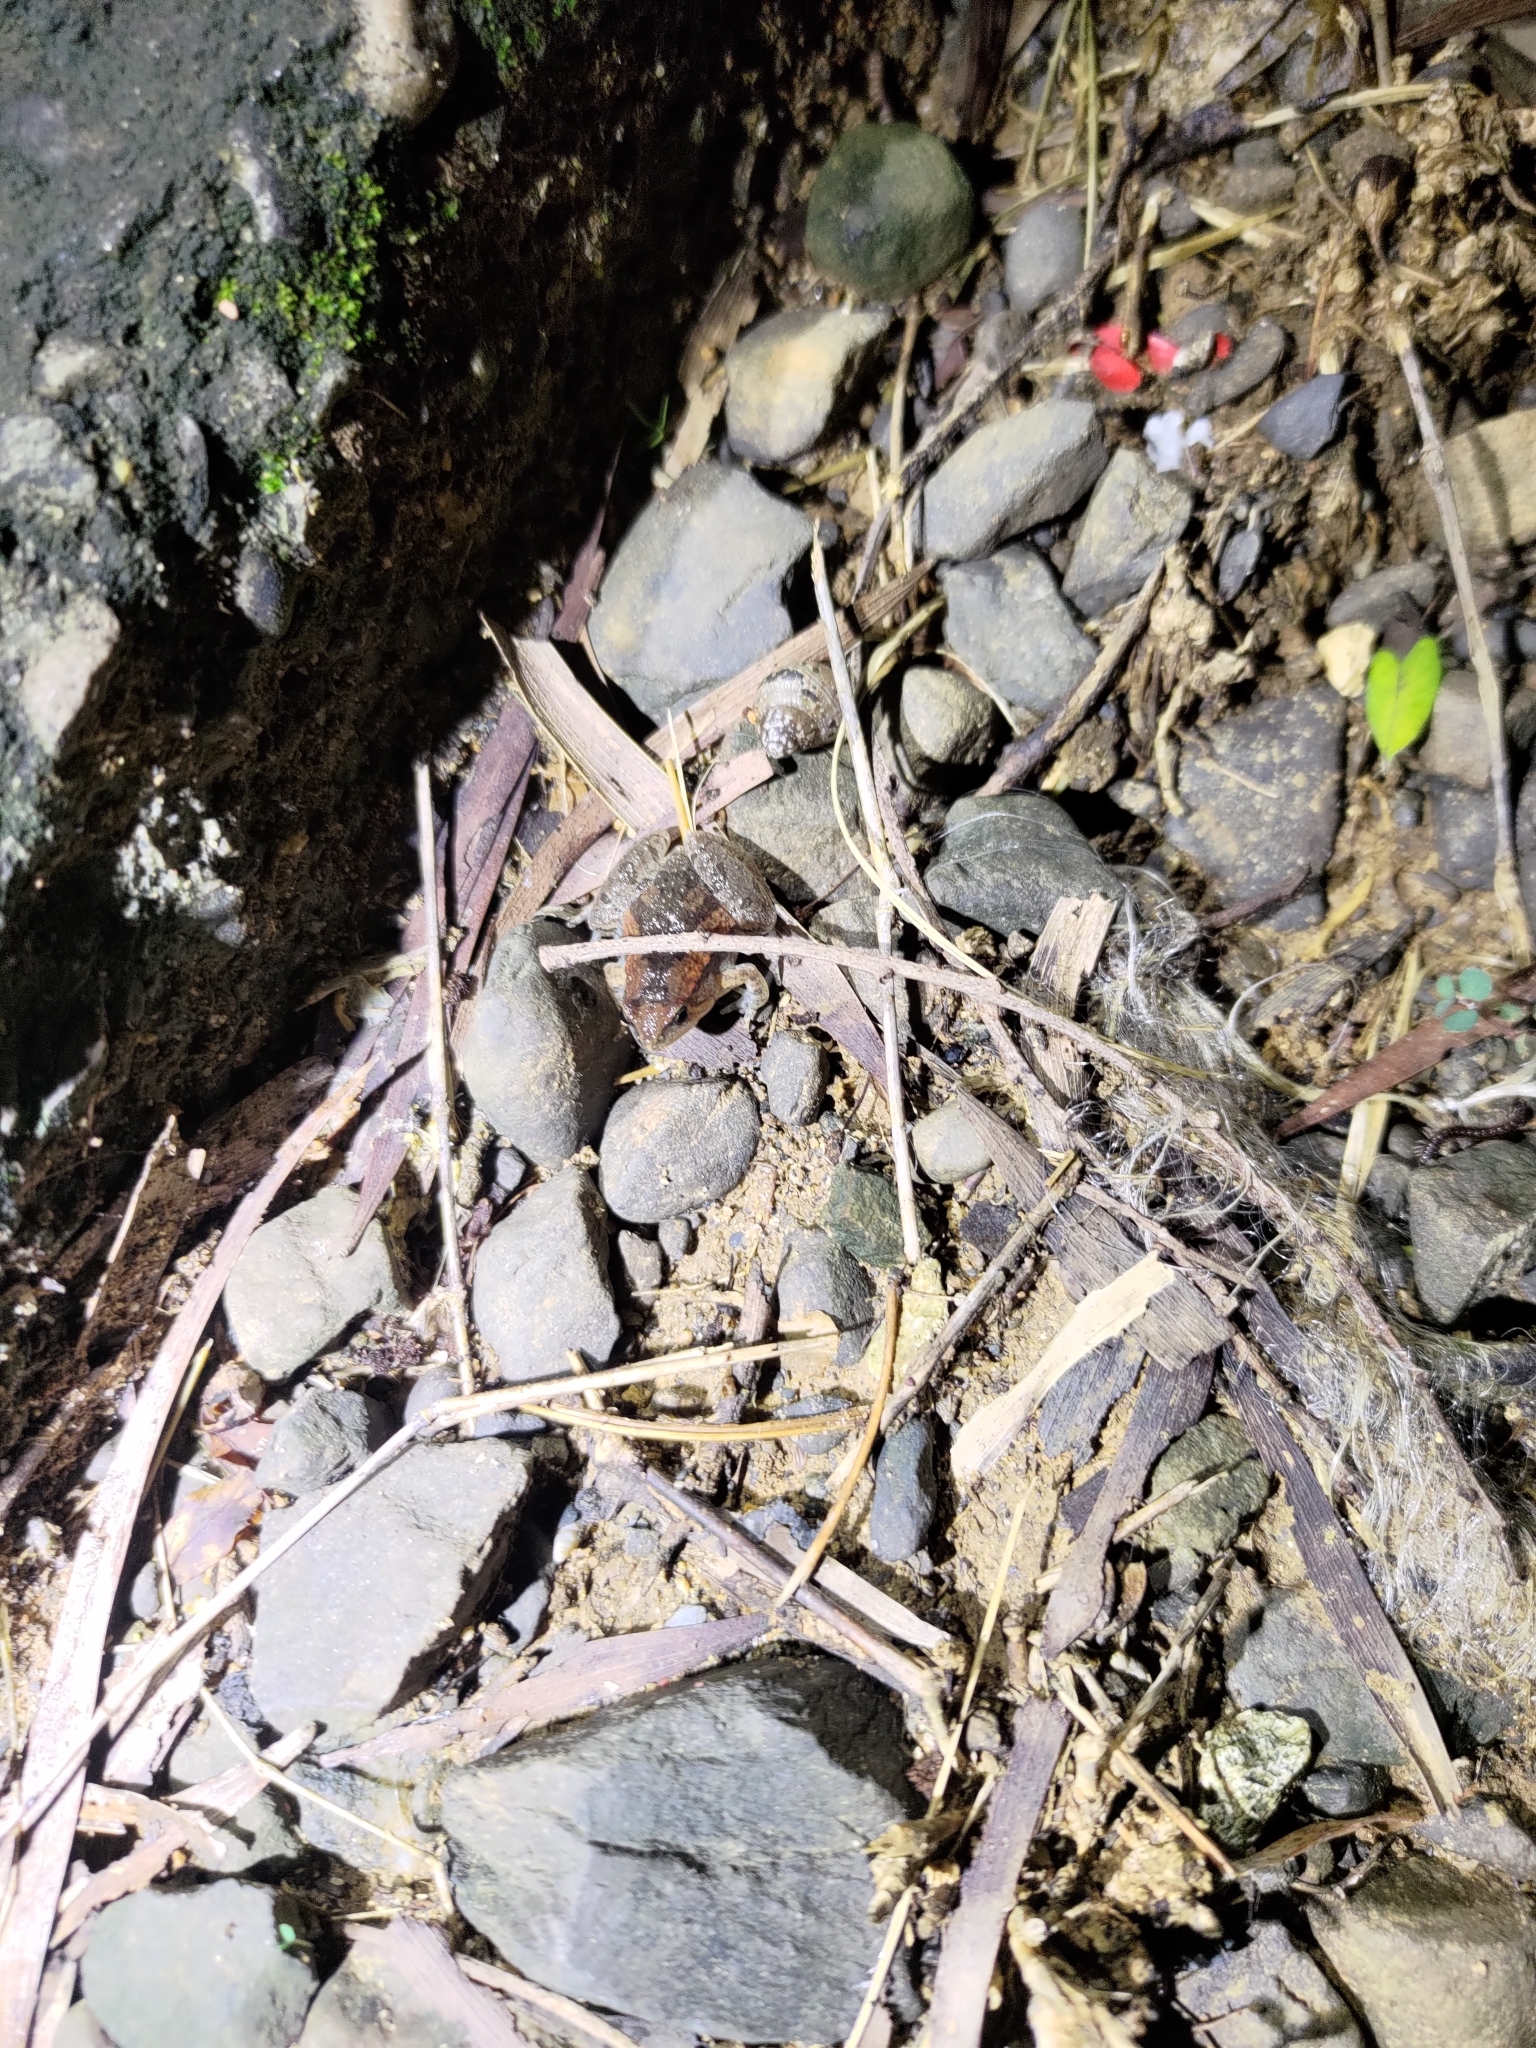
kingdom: Animalia
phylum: Chordata
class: Amphibia
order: Anura
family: Microhylidae
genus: Microhyla
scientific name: Microhyla fissipes
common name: Ornate narrow-mouthed frog
